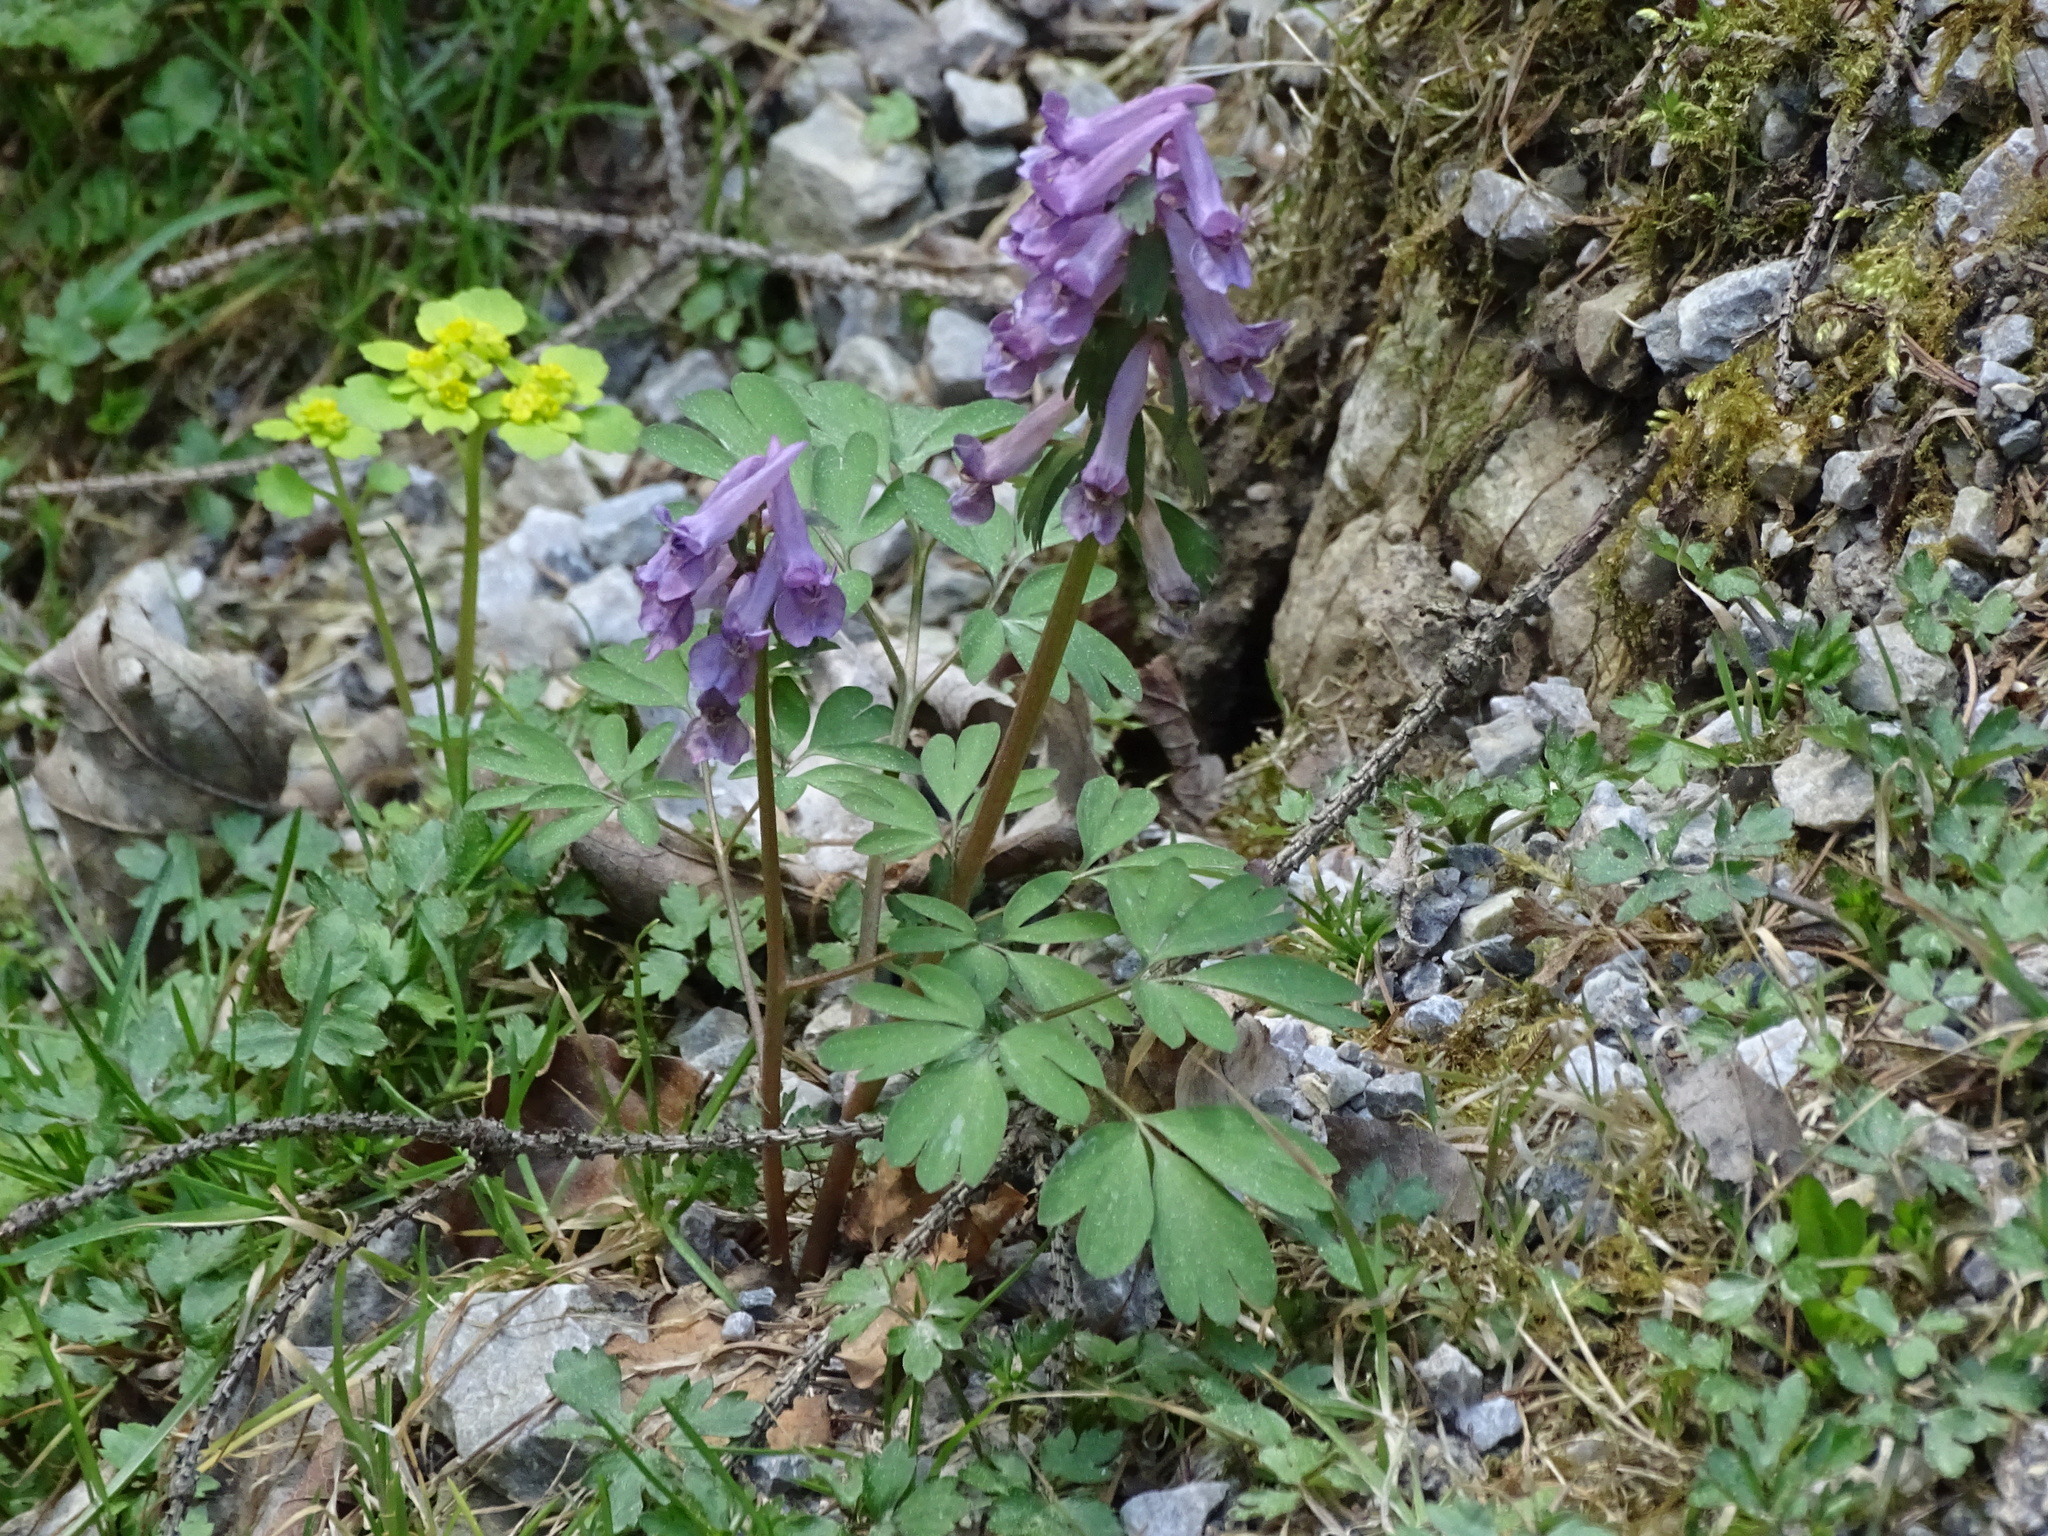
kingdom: Plantae
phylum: Tracheophyta
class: Magnoliopsida
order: Ranunculales
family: Papaveraceae
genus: Corydalis
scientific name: Corydalis solida
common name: Bird-in-a-bush
